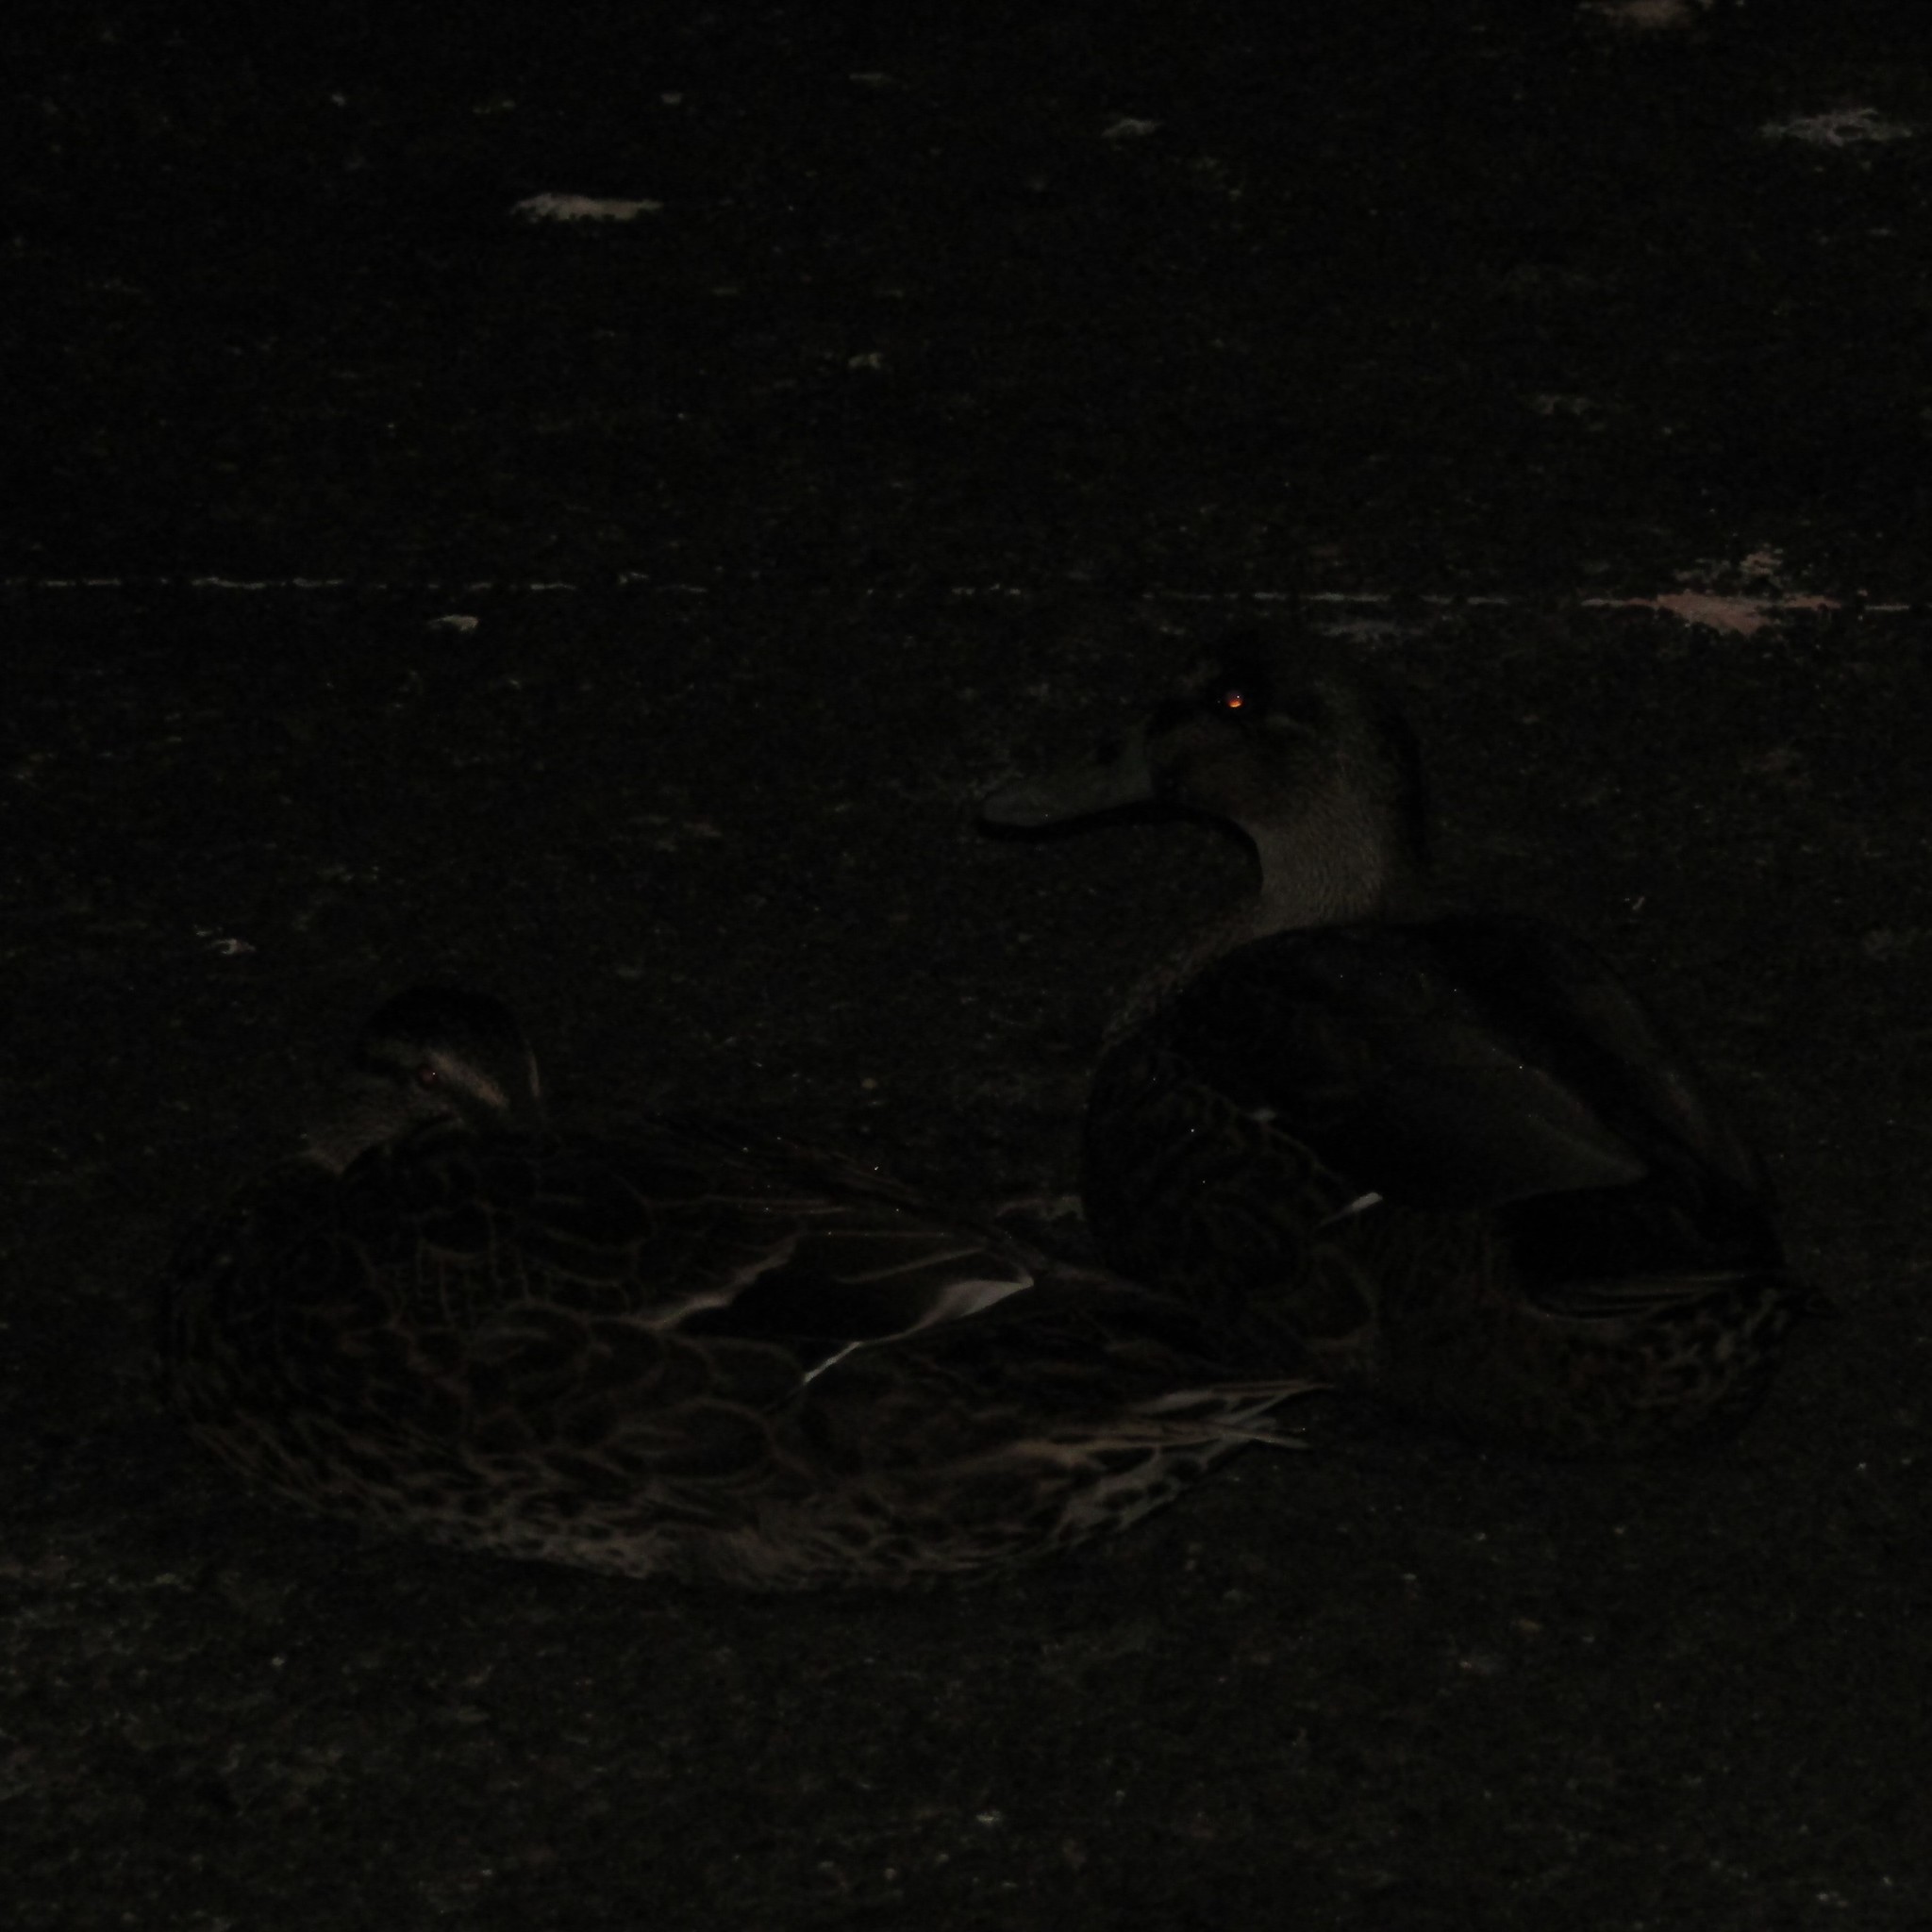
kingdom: Animalia
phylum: Chordata
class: Aves
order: Anseriformes
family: Anatidae
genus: Anas
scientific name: Anas
